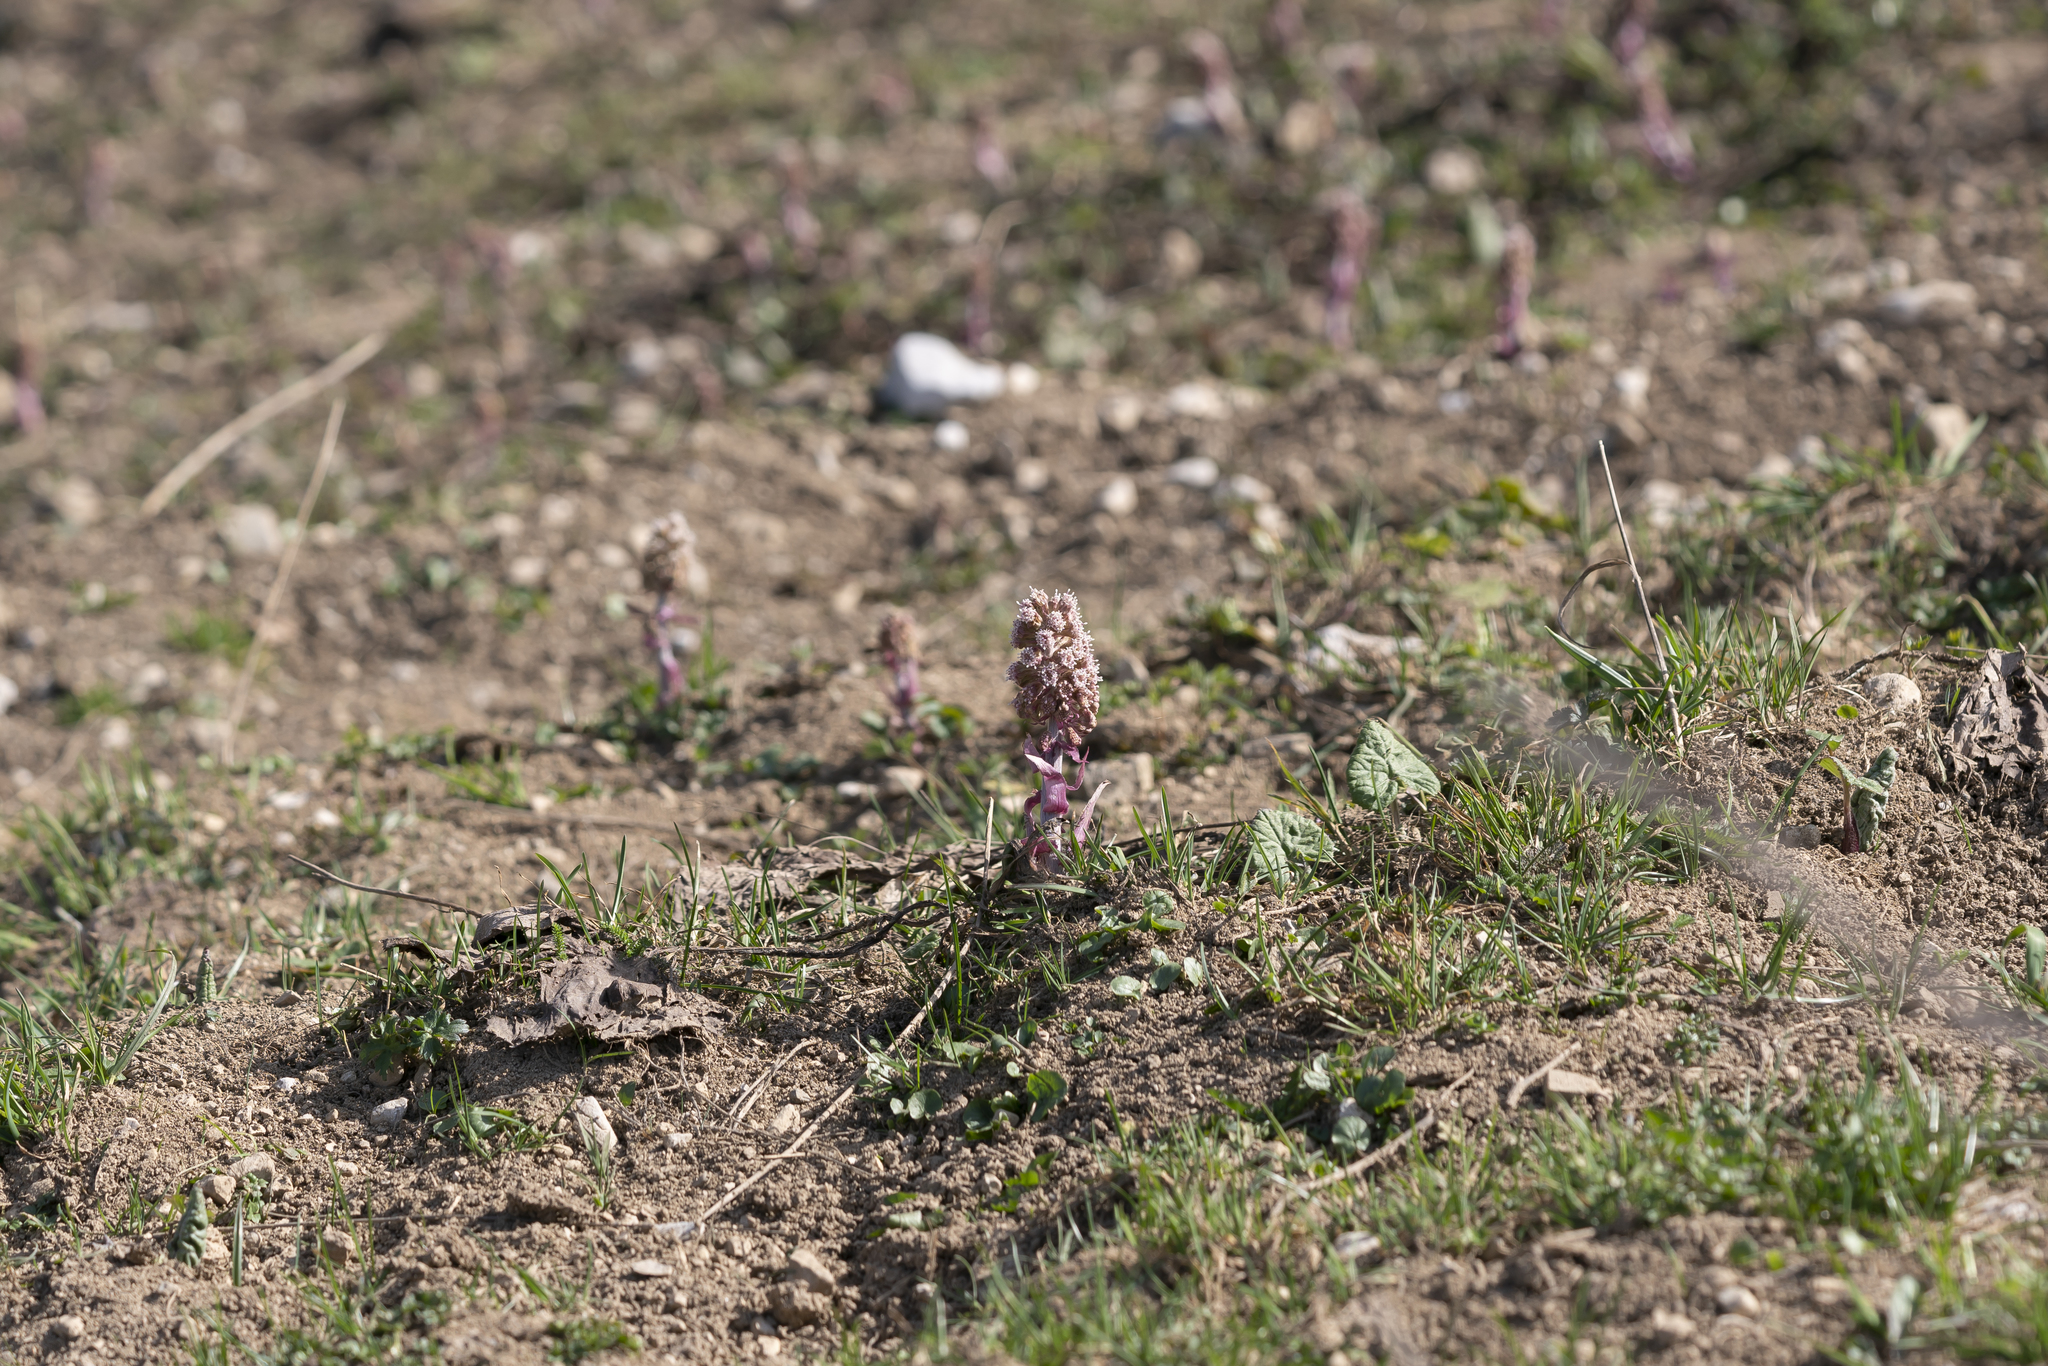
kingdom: Plantae
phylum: Tracheophyta
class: Magnoliopsida
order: Asterales
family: Asteraceae
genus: Petasites
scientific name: Petasites hybridus
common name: Butterbur
